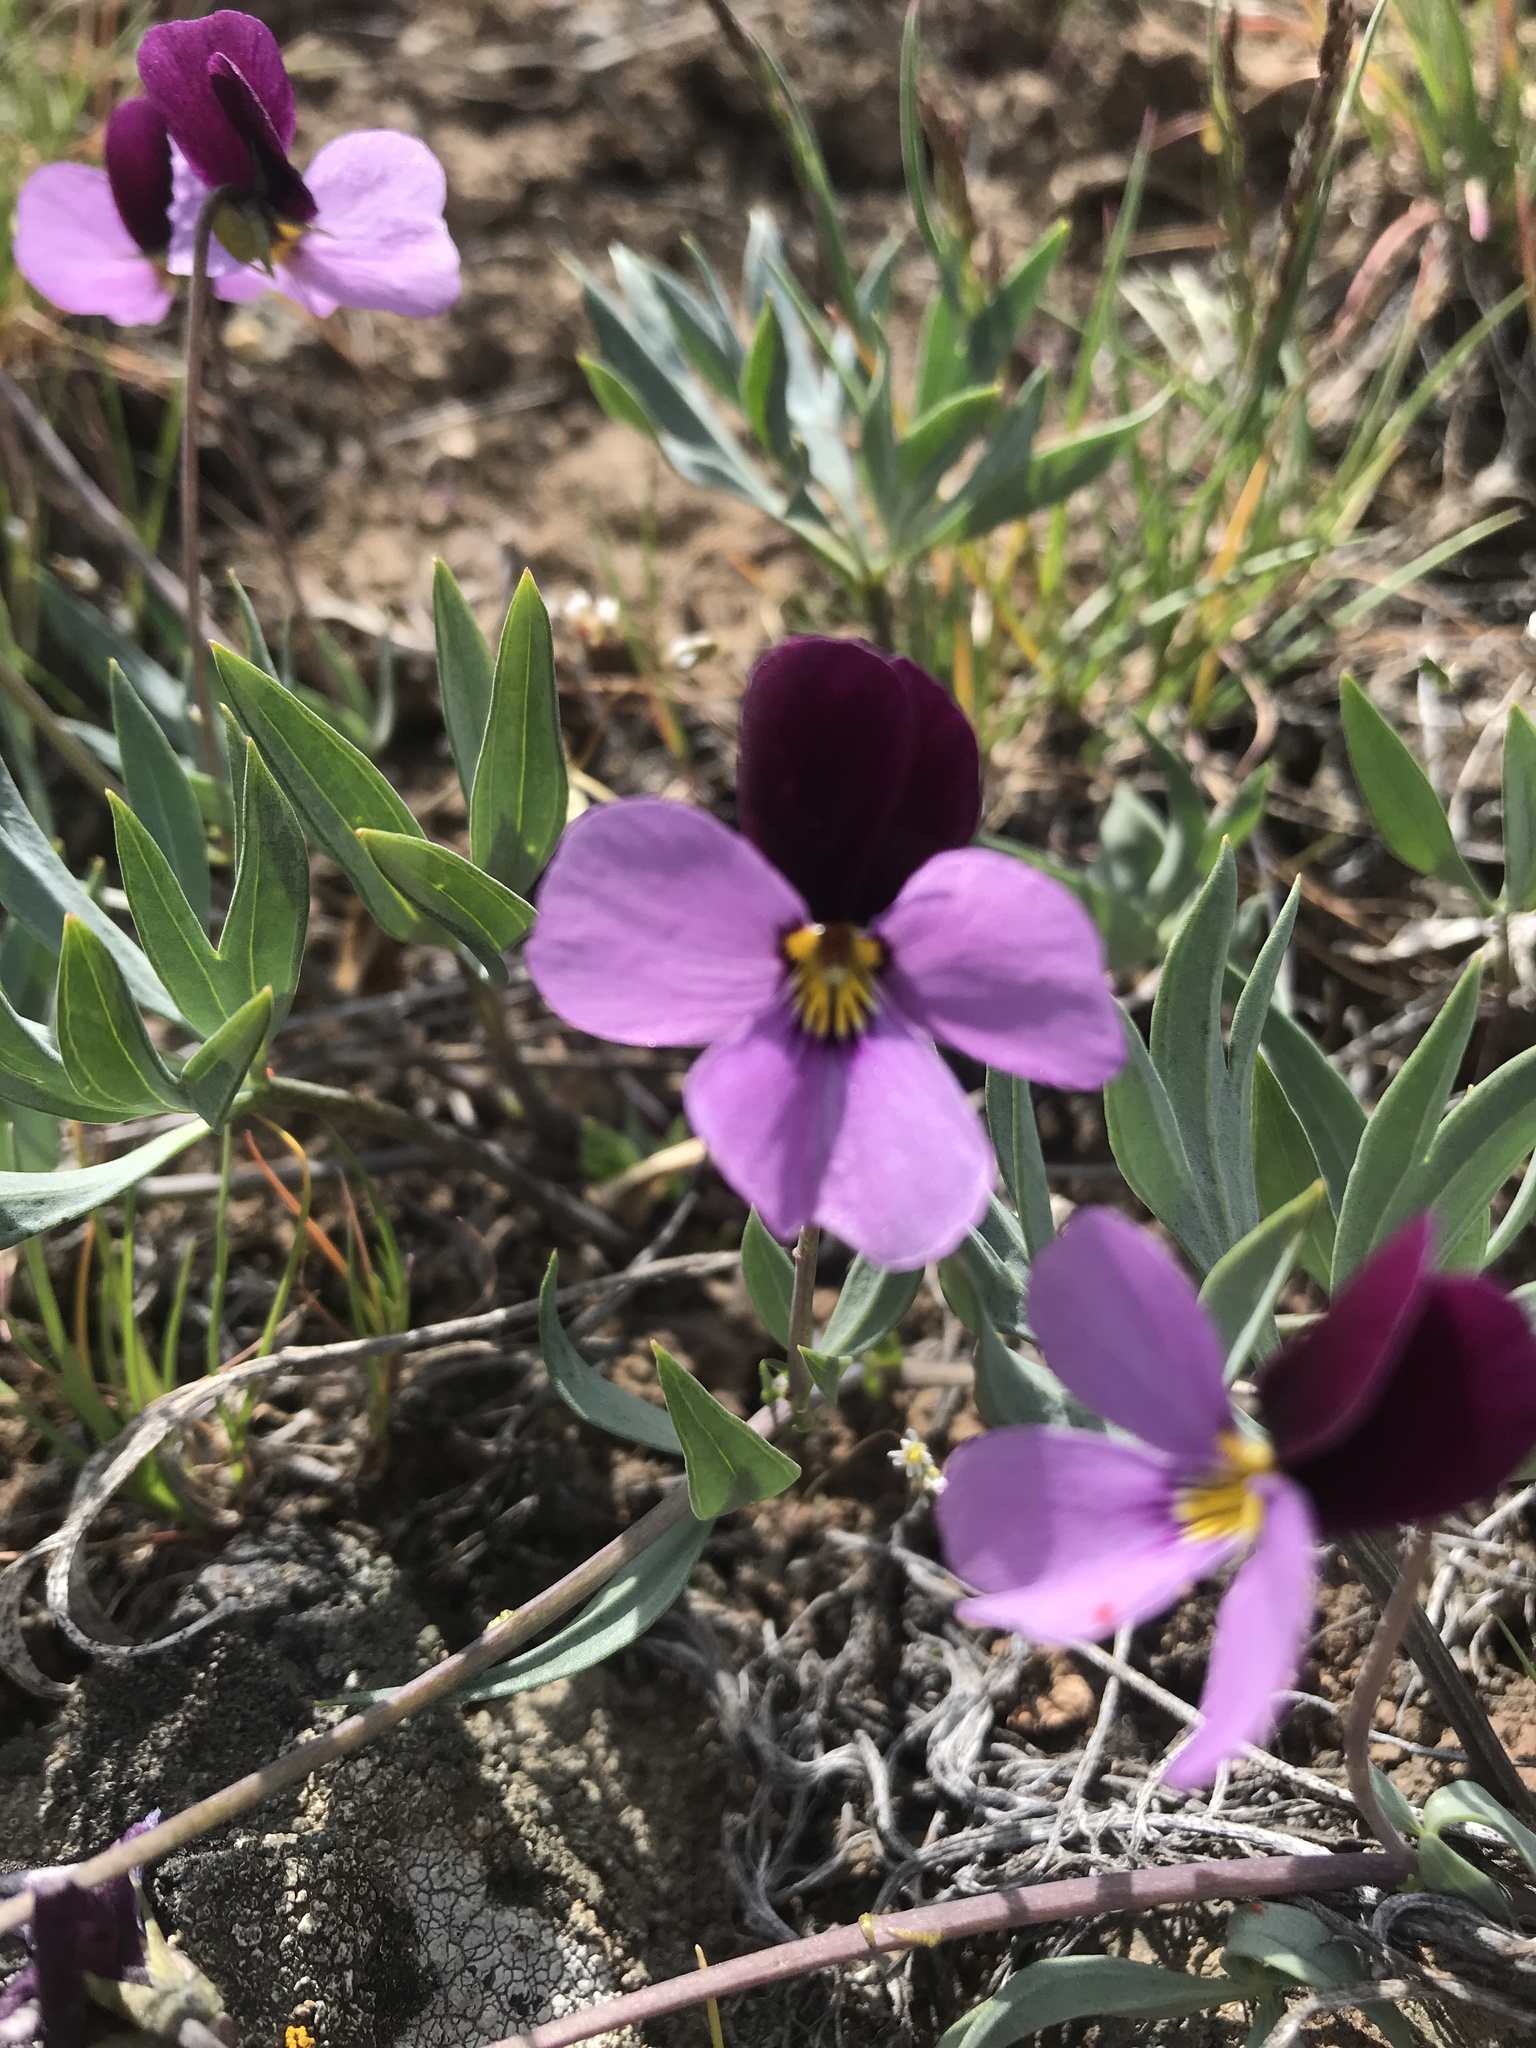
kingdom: Plantae
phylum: Tracheophyta
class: Magnoliopsida
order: Malpighiales
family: Violaceae
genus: Viola
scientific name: Viola trinervata
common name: Sagebrush violet
